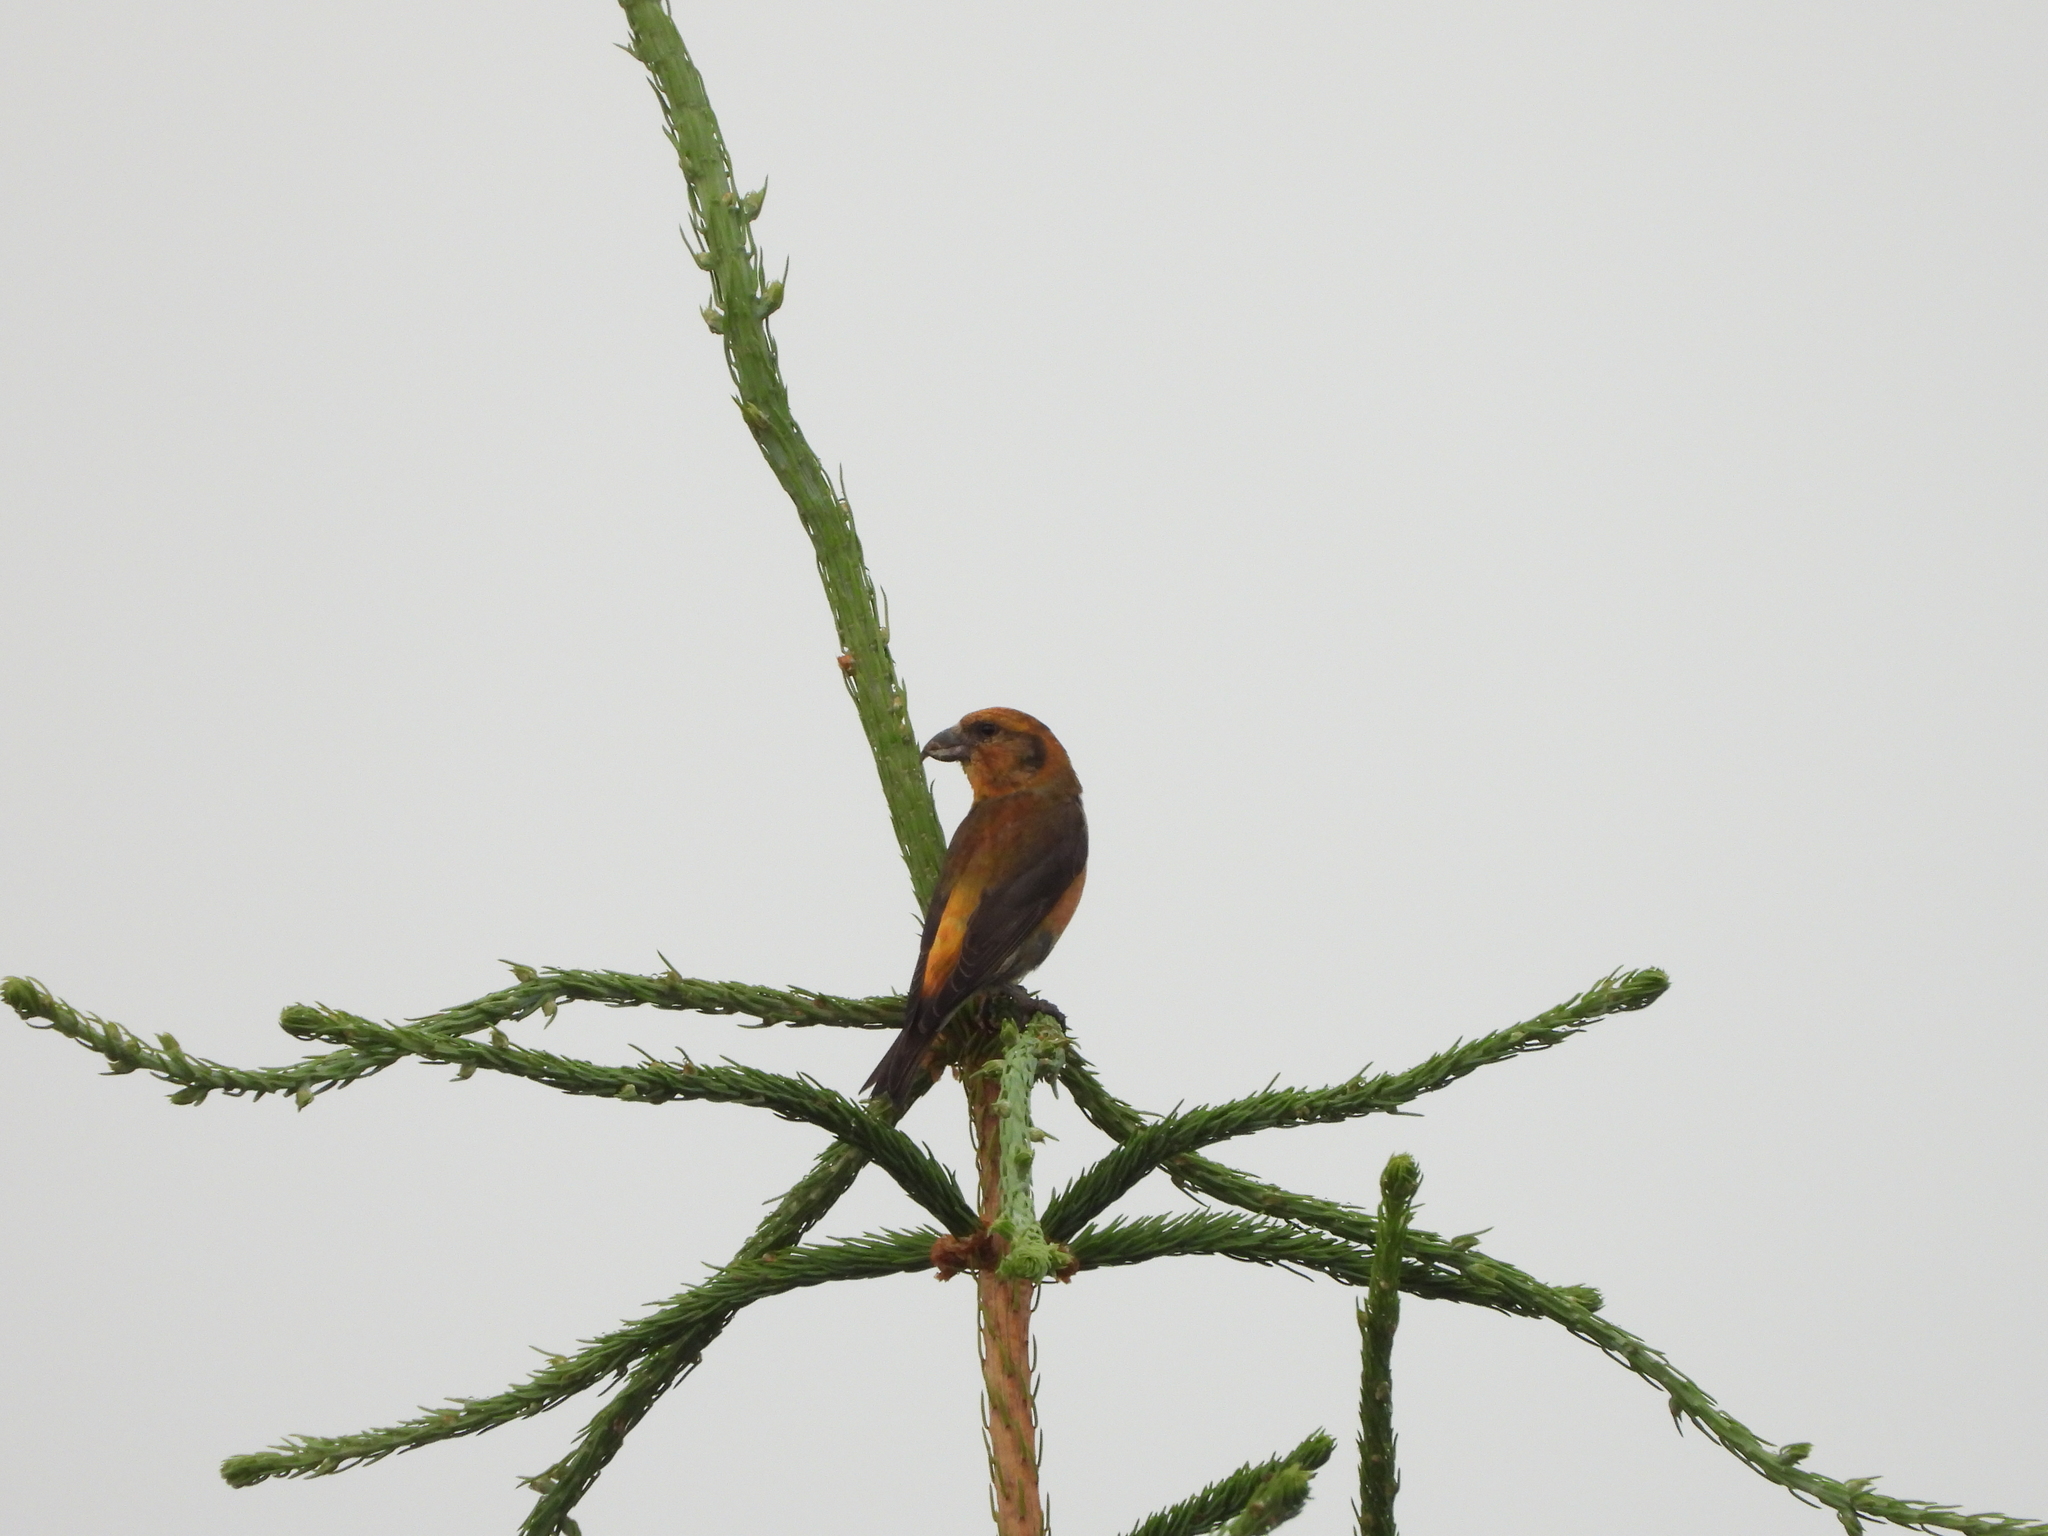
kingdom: Animalia
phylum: Chordata
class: Aves
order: Passeriformes
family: Fringillidae
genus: Loxia
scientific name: Loxia curvirostra
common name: Red crossbill
